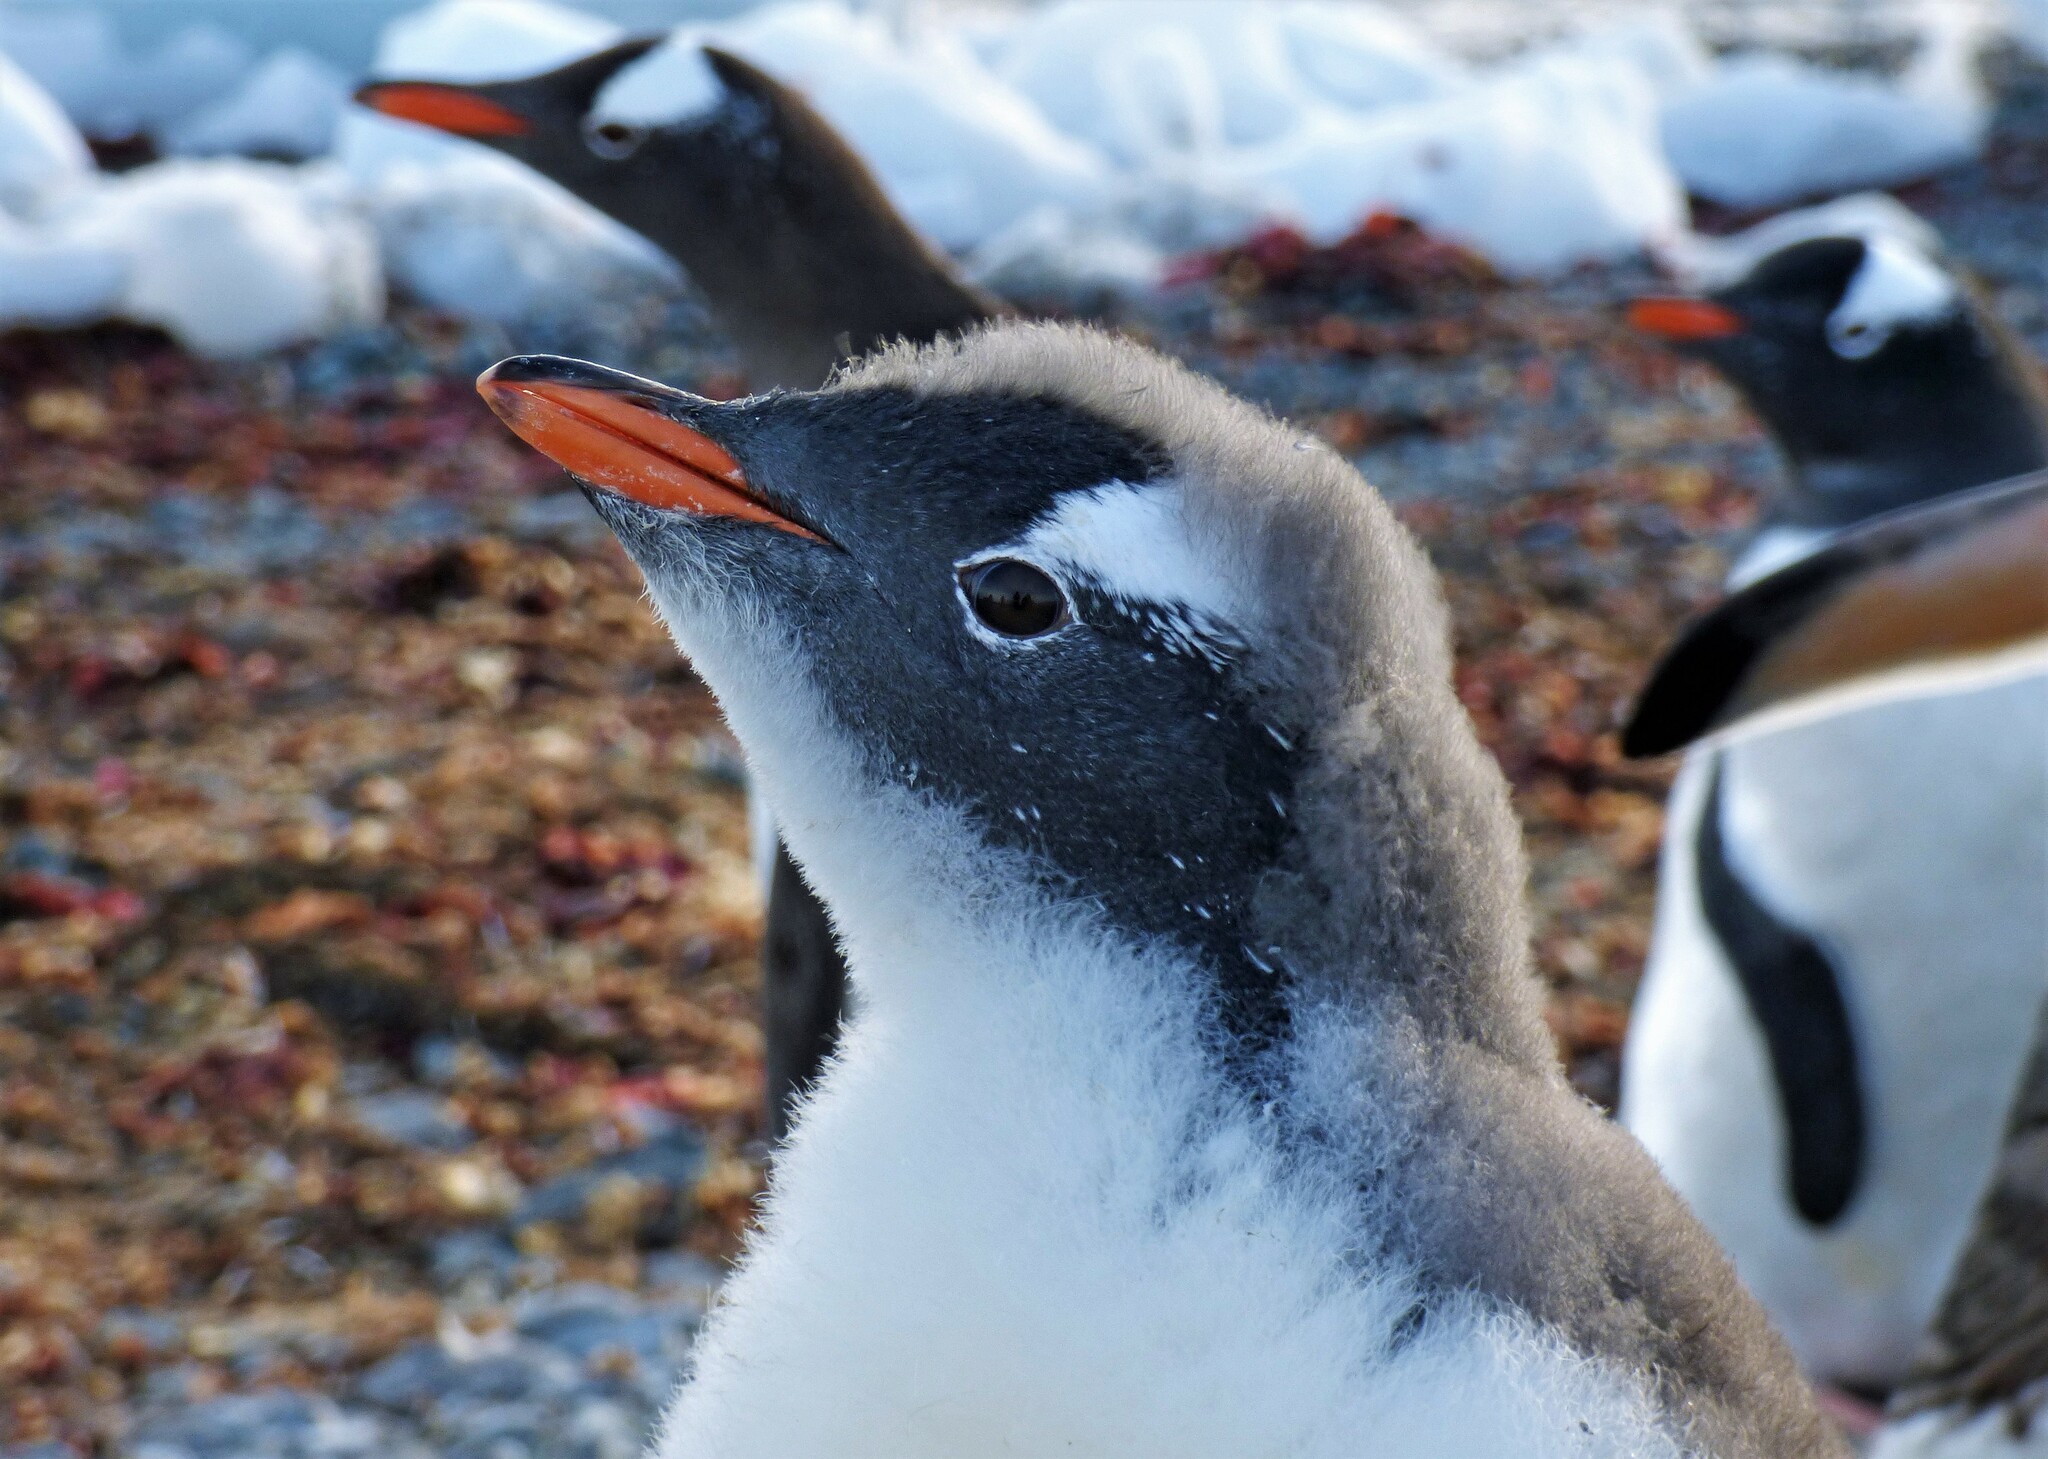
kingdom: Animalia
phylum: Chordata
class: Aves
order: Sphenisciformes
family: Spheniscidae
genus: Pygoscelis
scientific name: Pygoscelis papua
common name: Gentoo penguin
